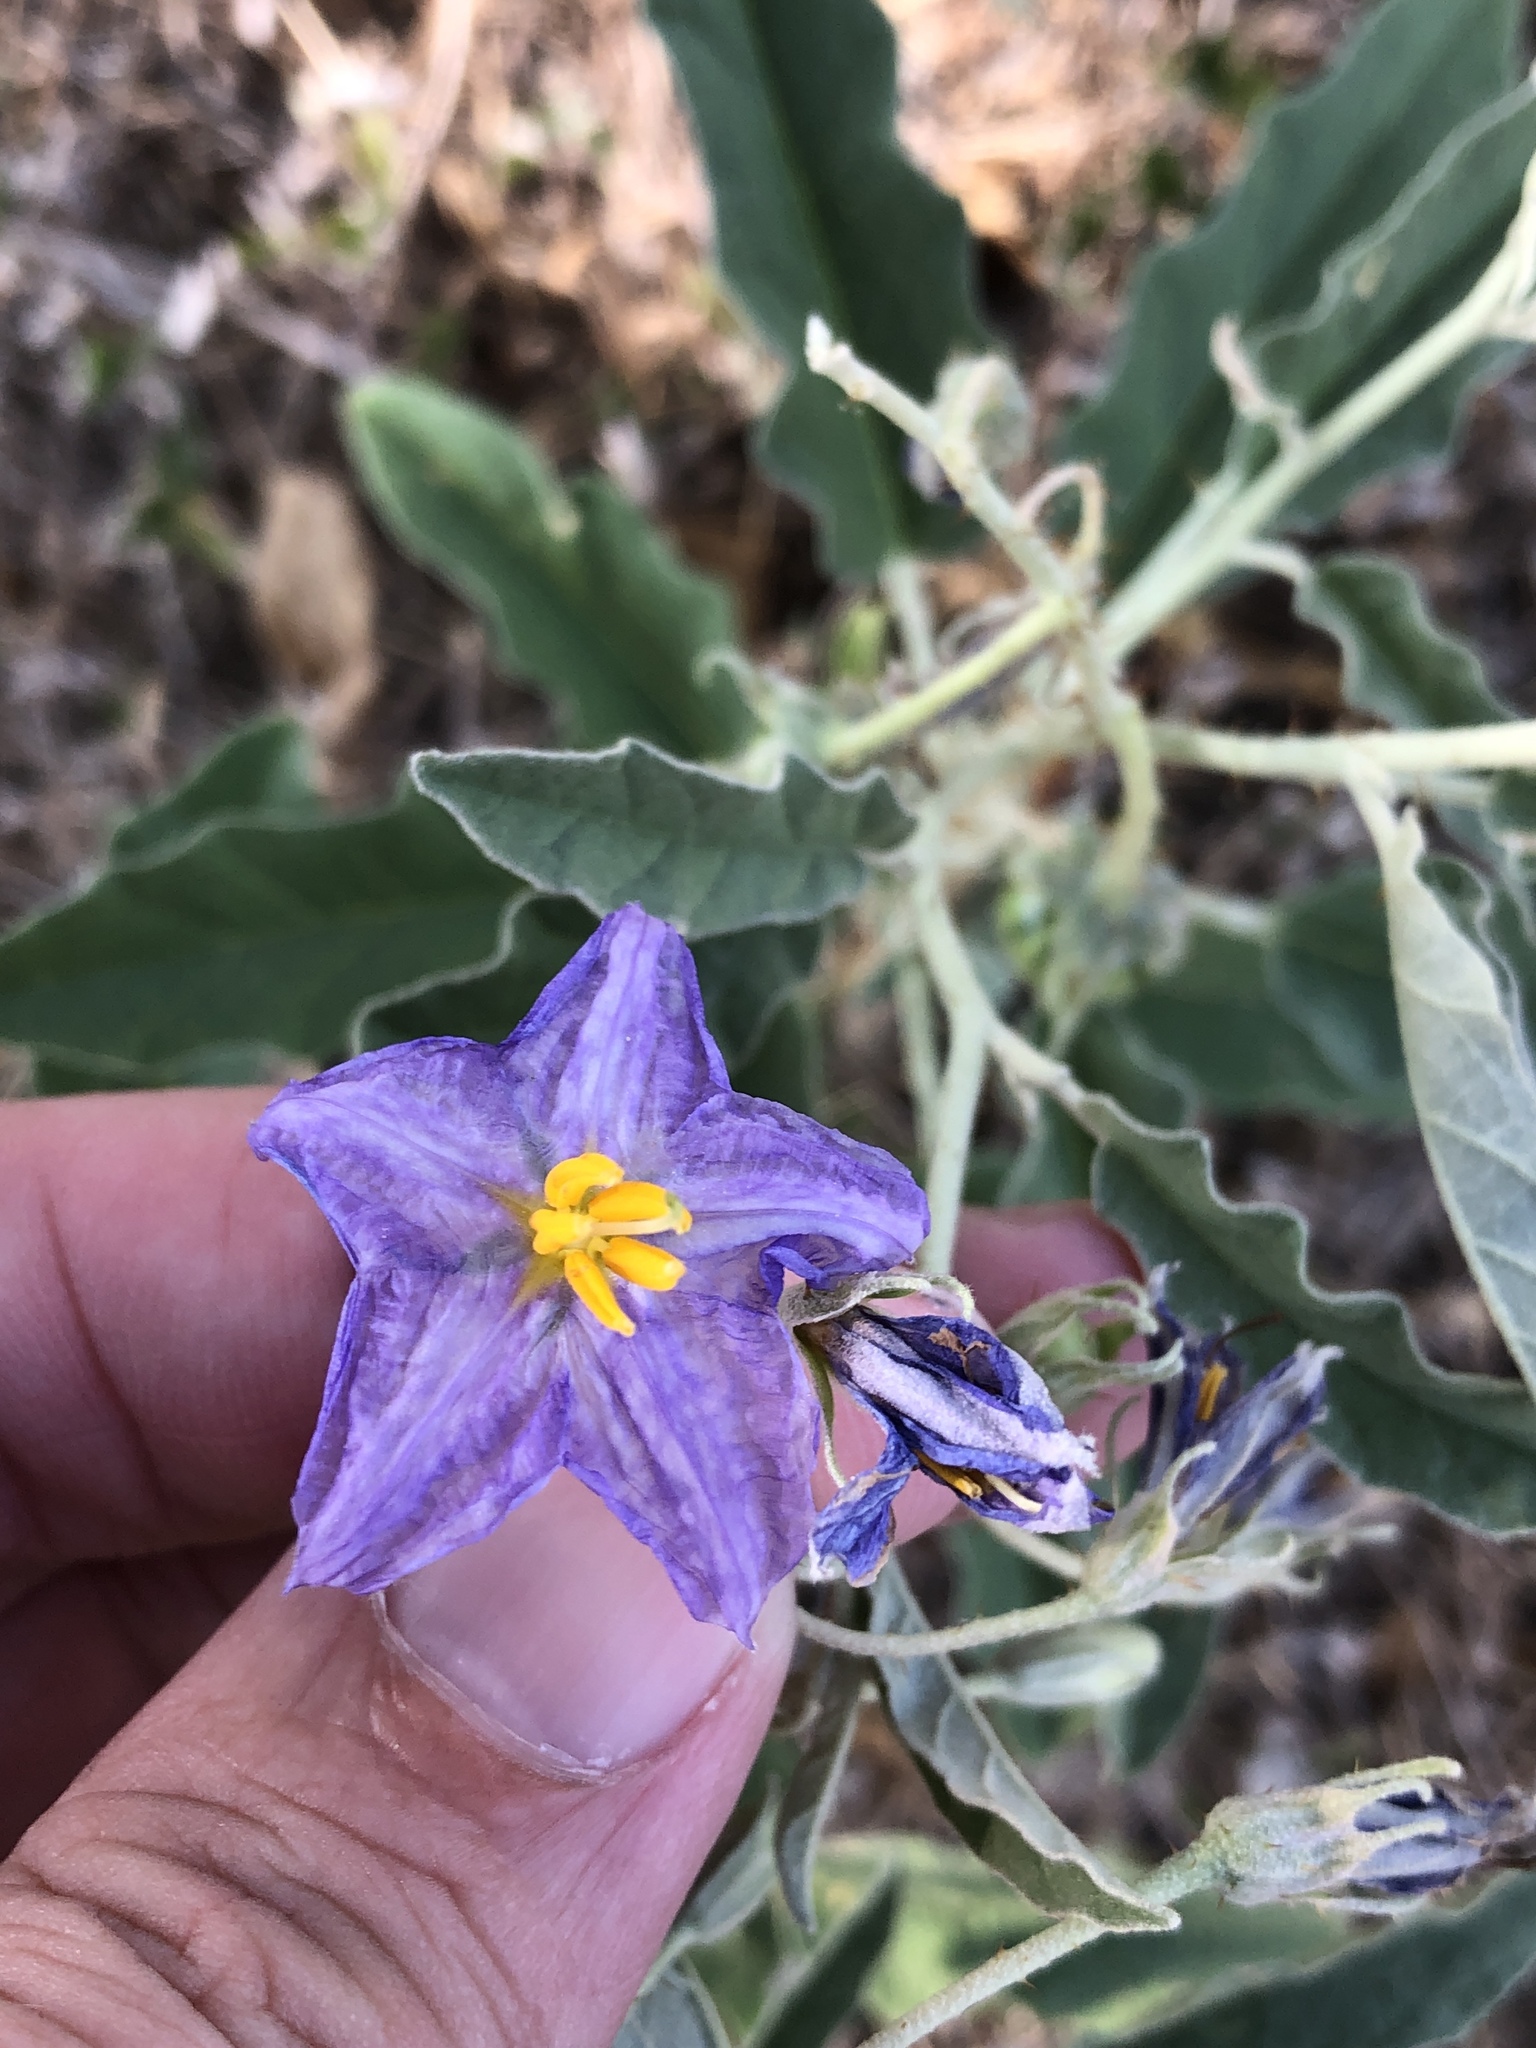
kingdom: Plantae
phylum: Tracheophyta
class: Magnoliopsida
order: Solanales
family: Solanaceae
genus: Solanum
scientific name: Solanum elaeagnifolium
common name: Silverleaf nightshade
